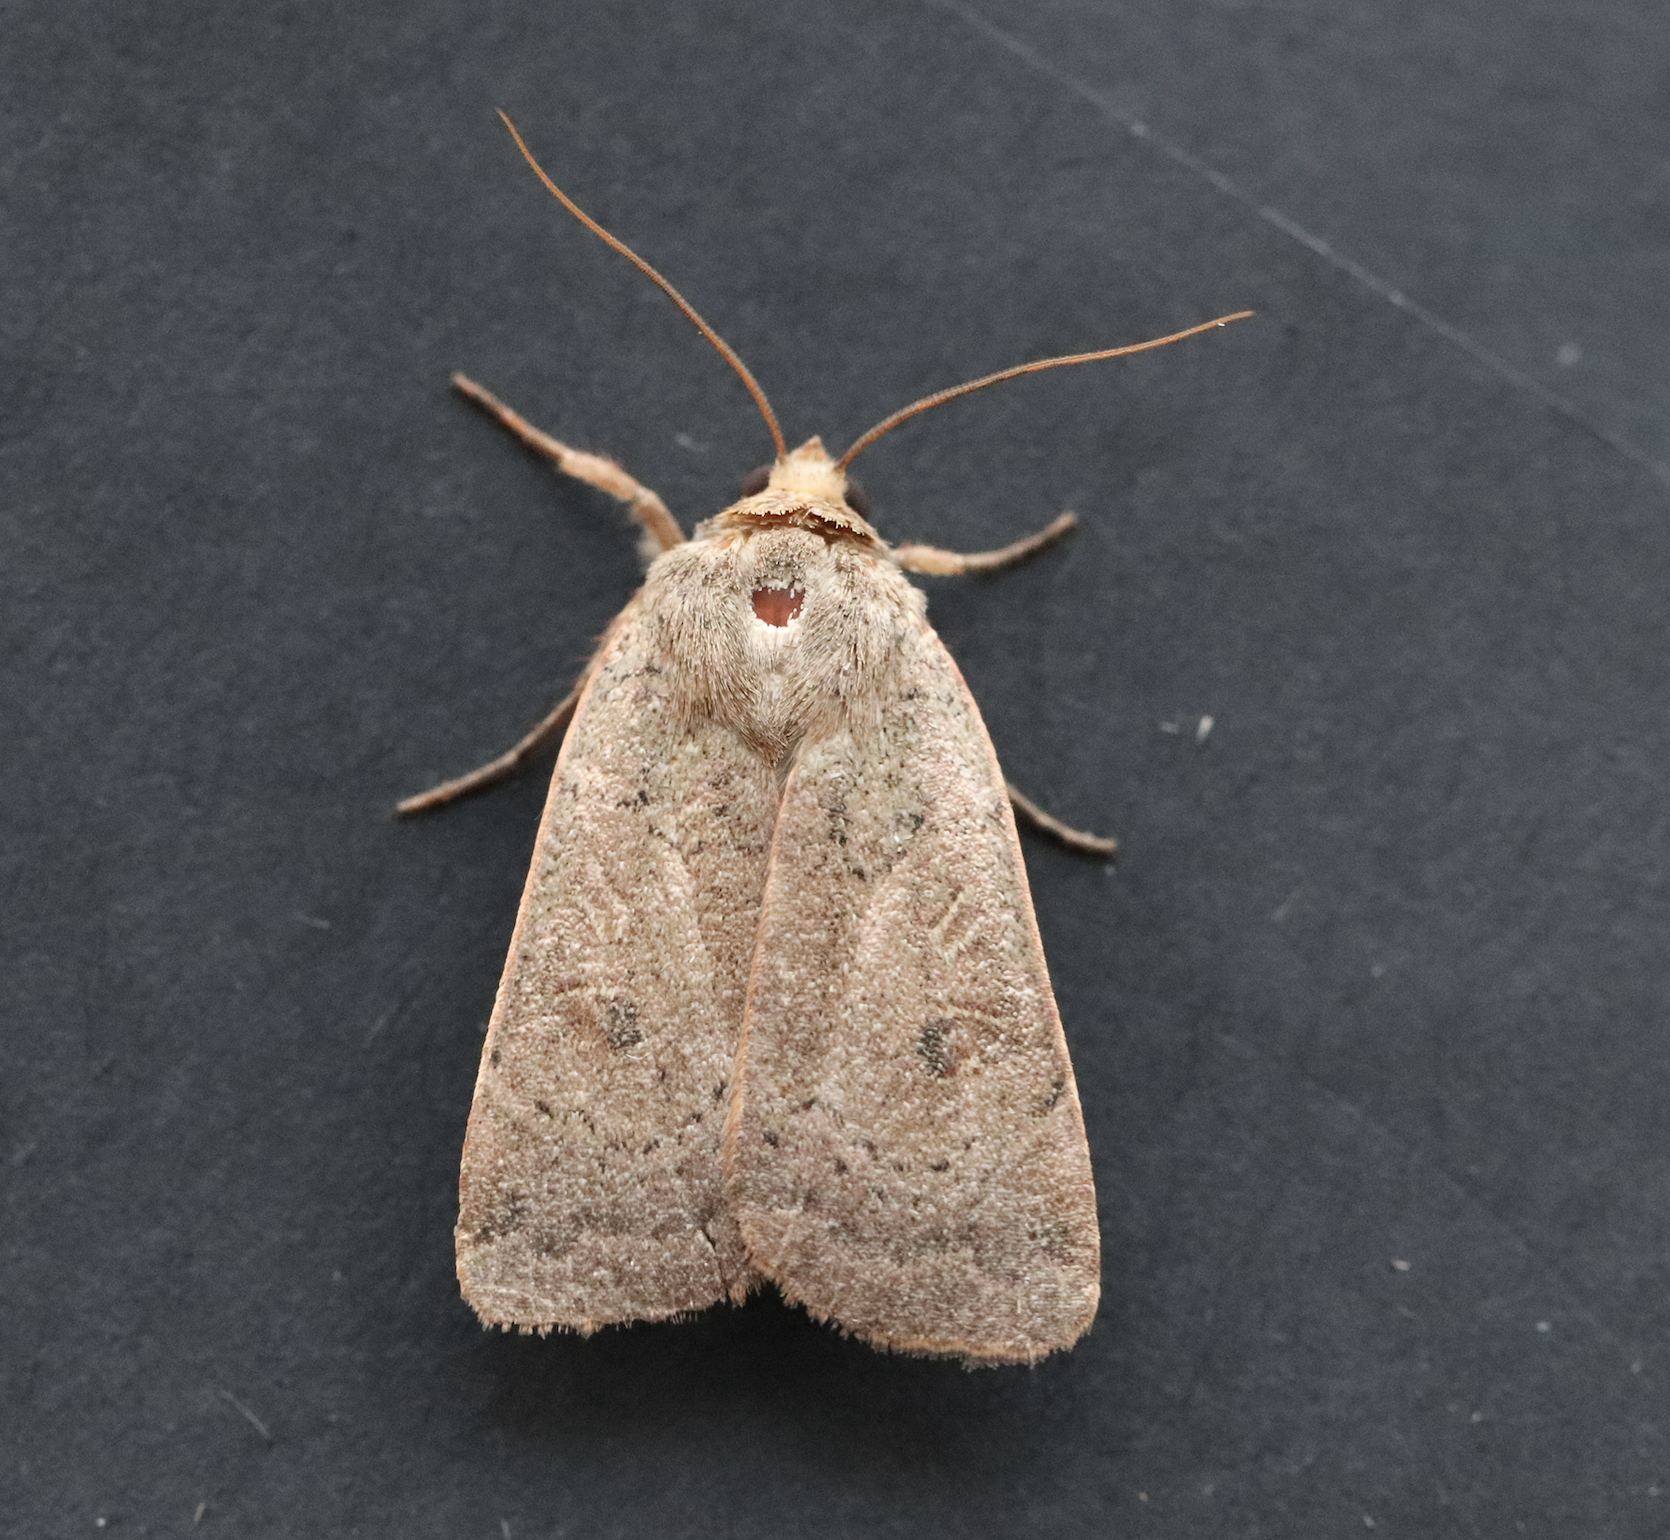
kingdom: Animalia
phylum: Arthropoda
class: Insecta
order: Lepidoptera
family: Noctuidae
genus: Noctua
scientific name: Noctua comes
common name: Lesser yellow underwing
